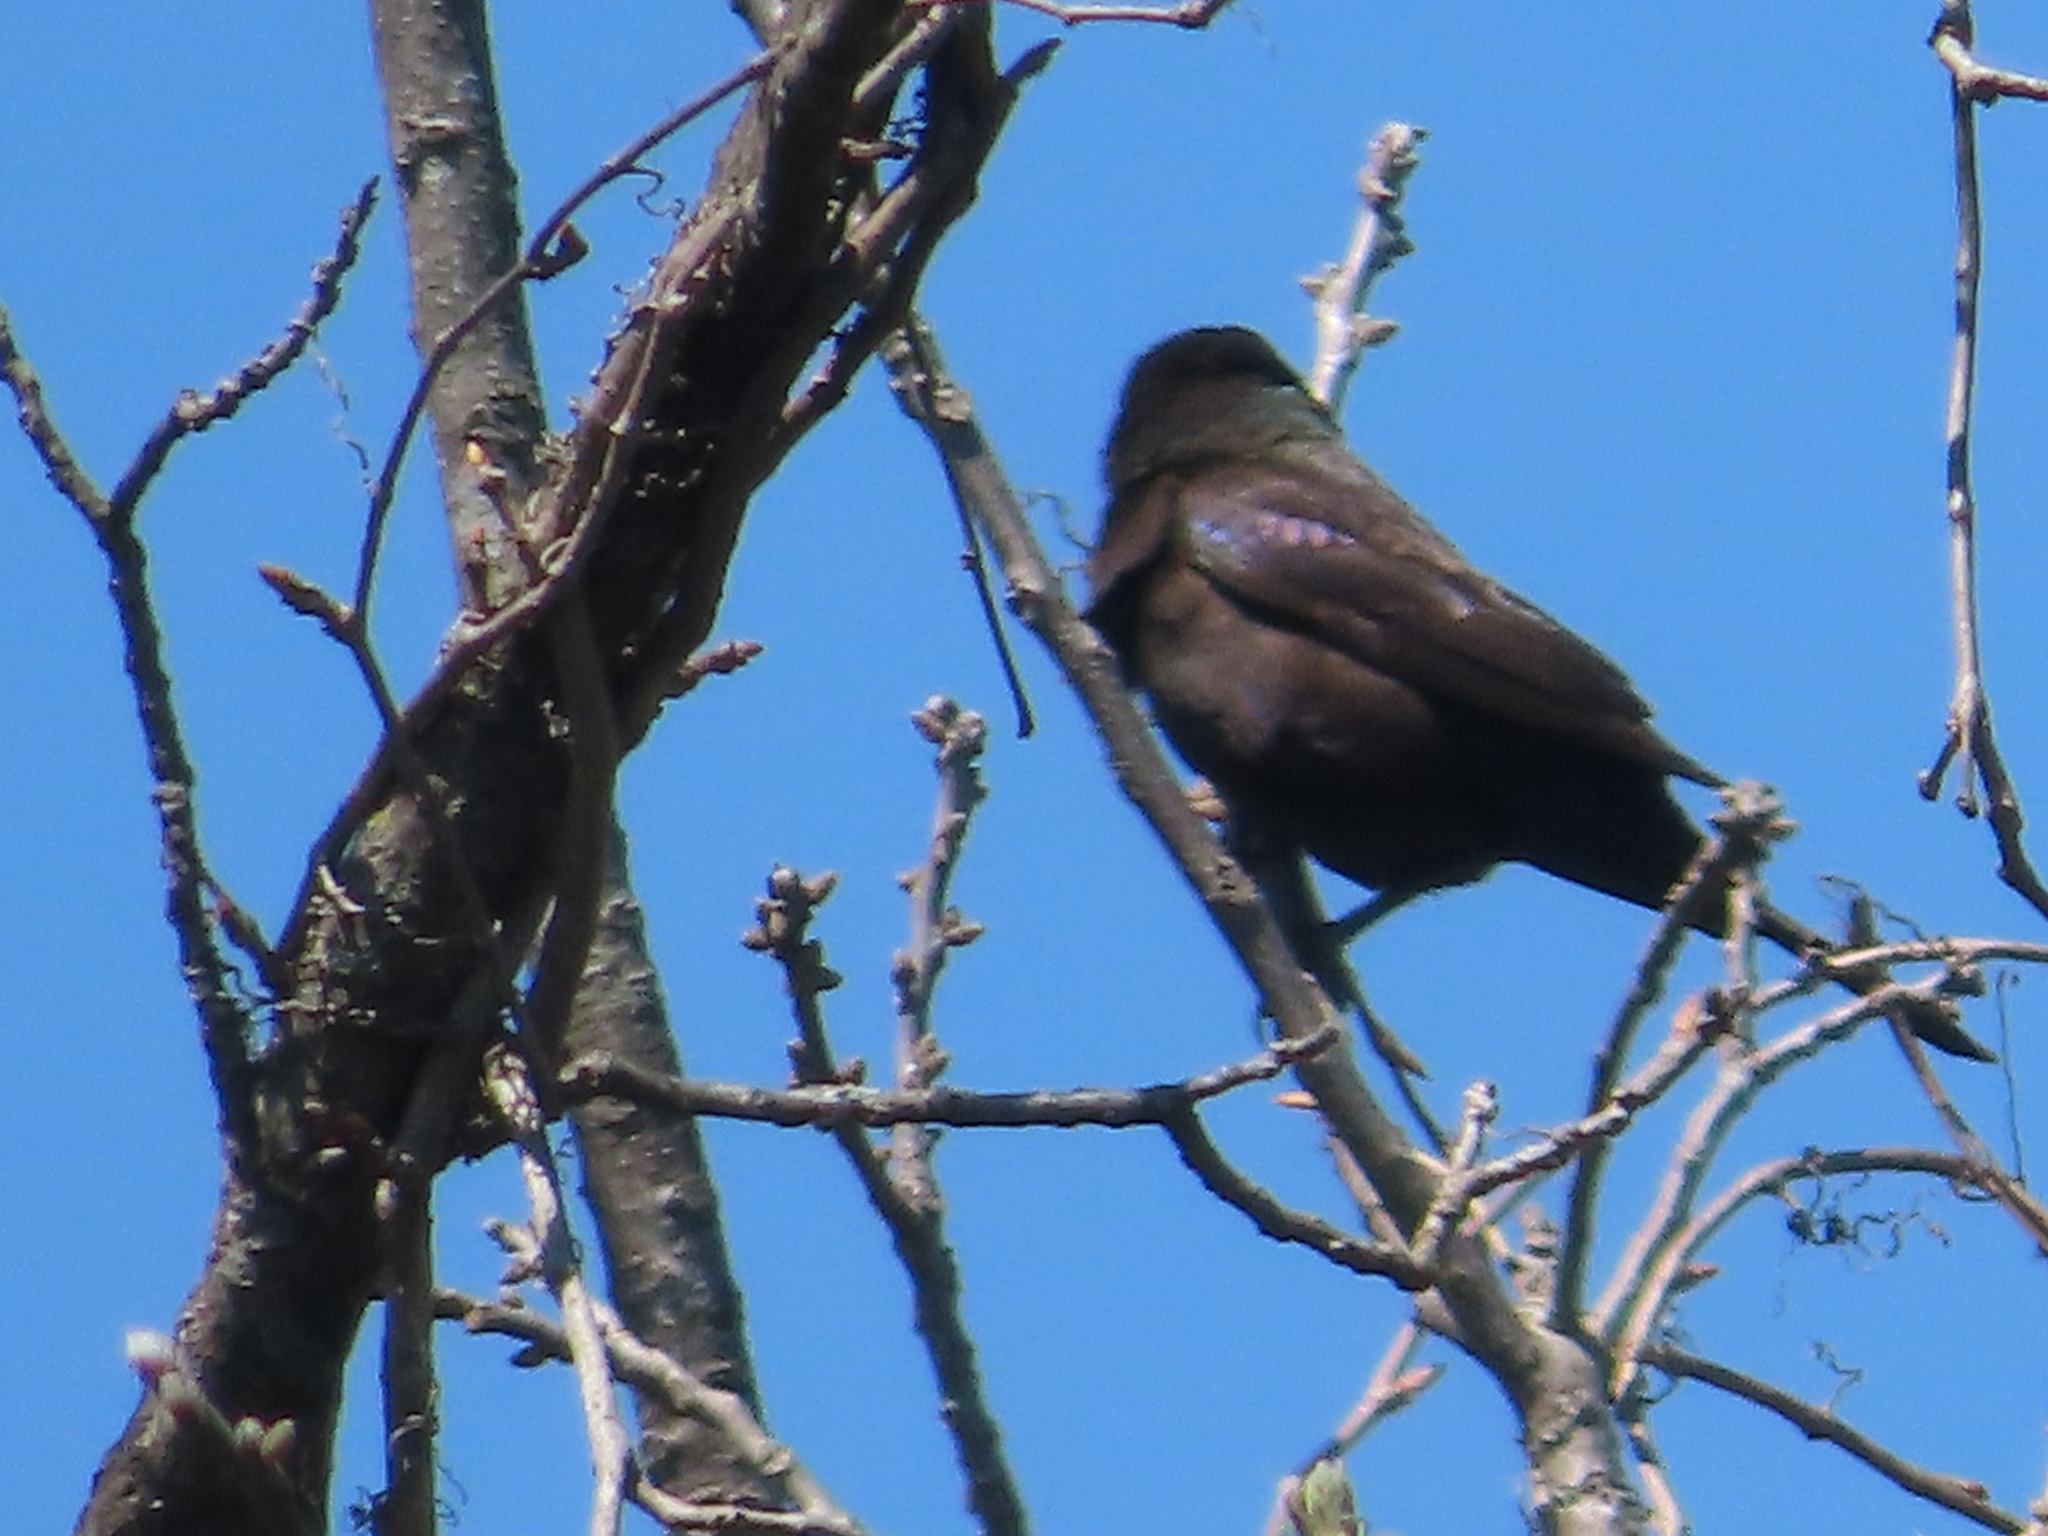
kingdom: Animalia
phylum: Chordata
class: Aves
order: Passeriformes
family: Icteridae
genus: Quiscalus
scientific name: Quiscalus quiscula
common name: Common grackle
